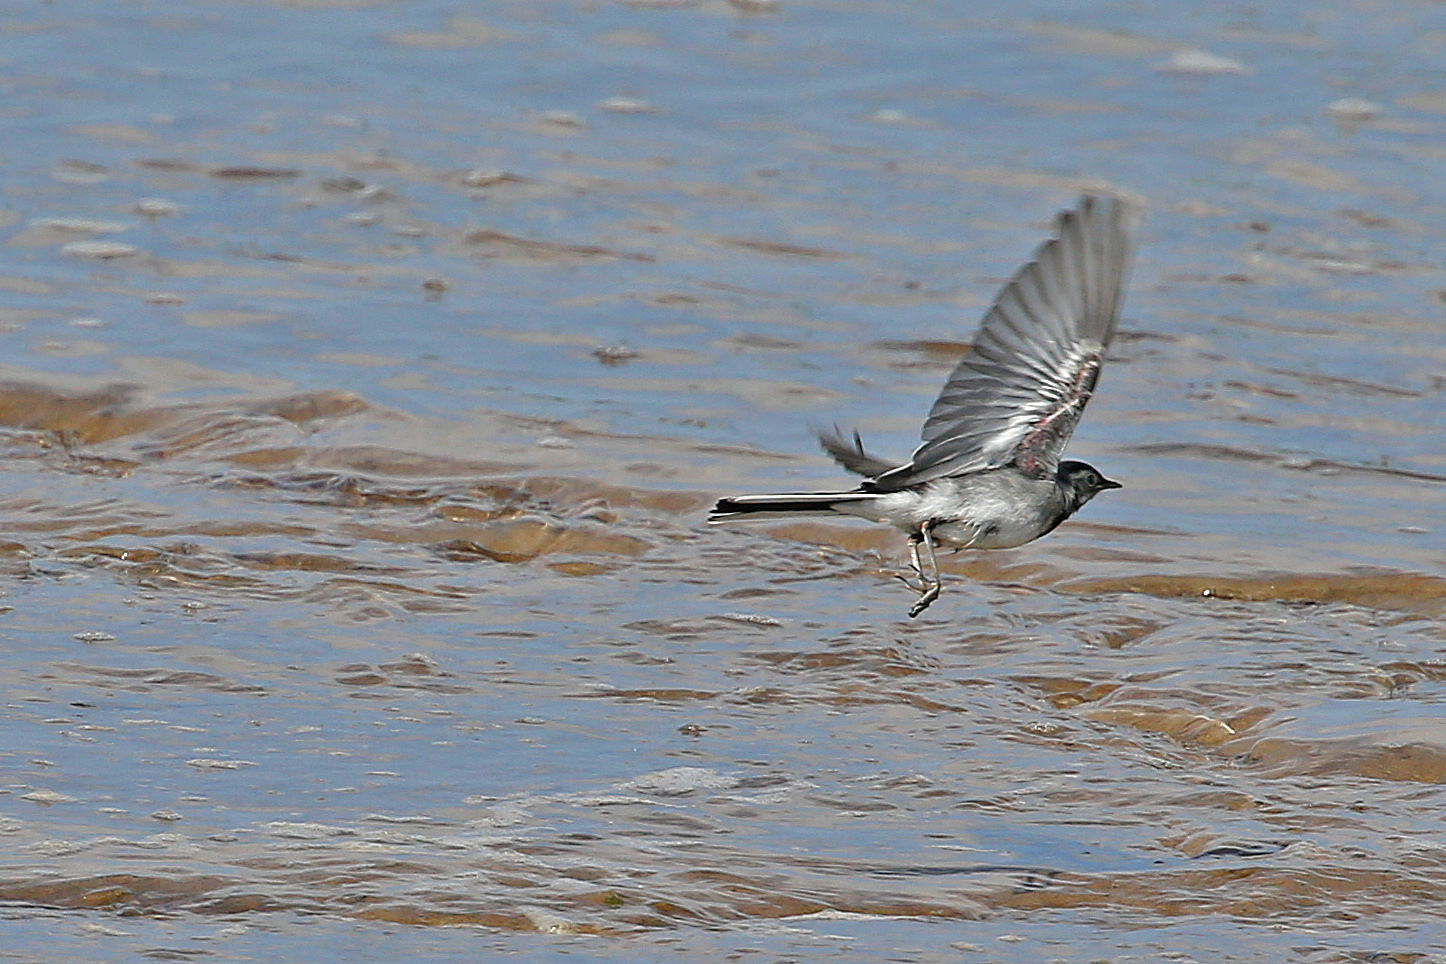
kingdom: Animalia
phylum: Chordata
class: Aves
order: Passeriformes
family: Motacillidae
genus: Motacilla
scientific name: Motacilla alba
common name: White wagtail
